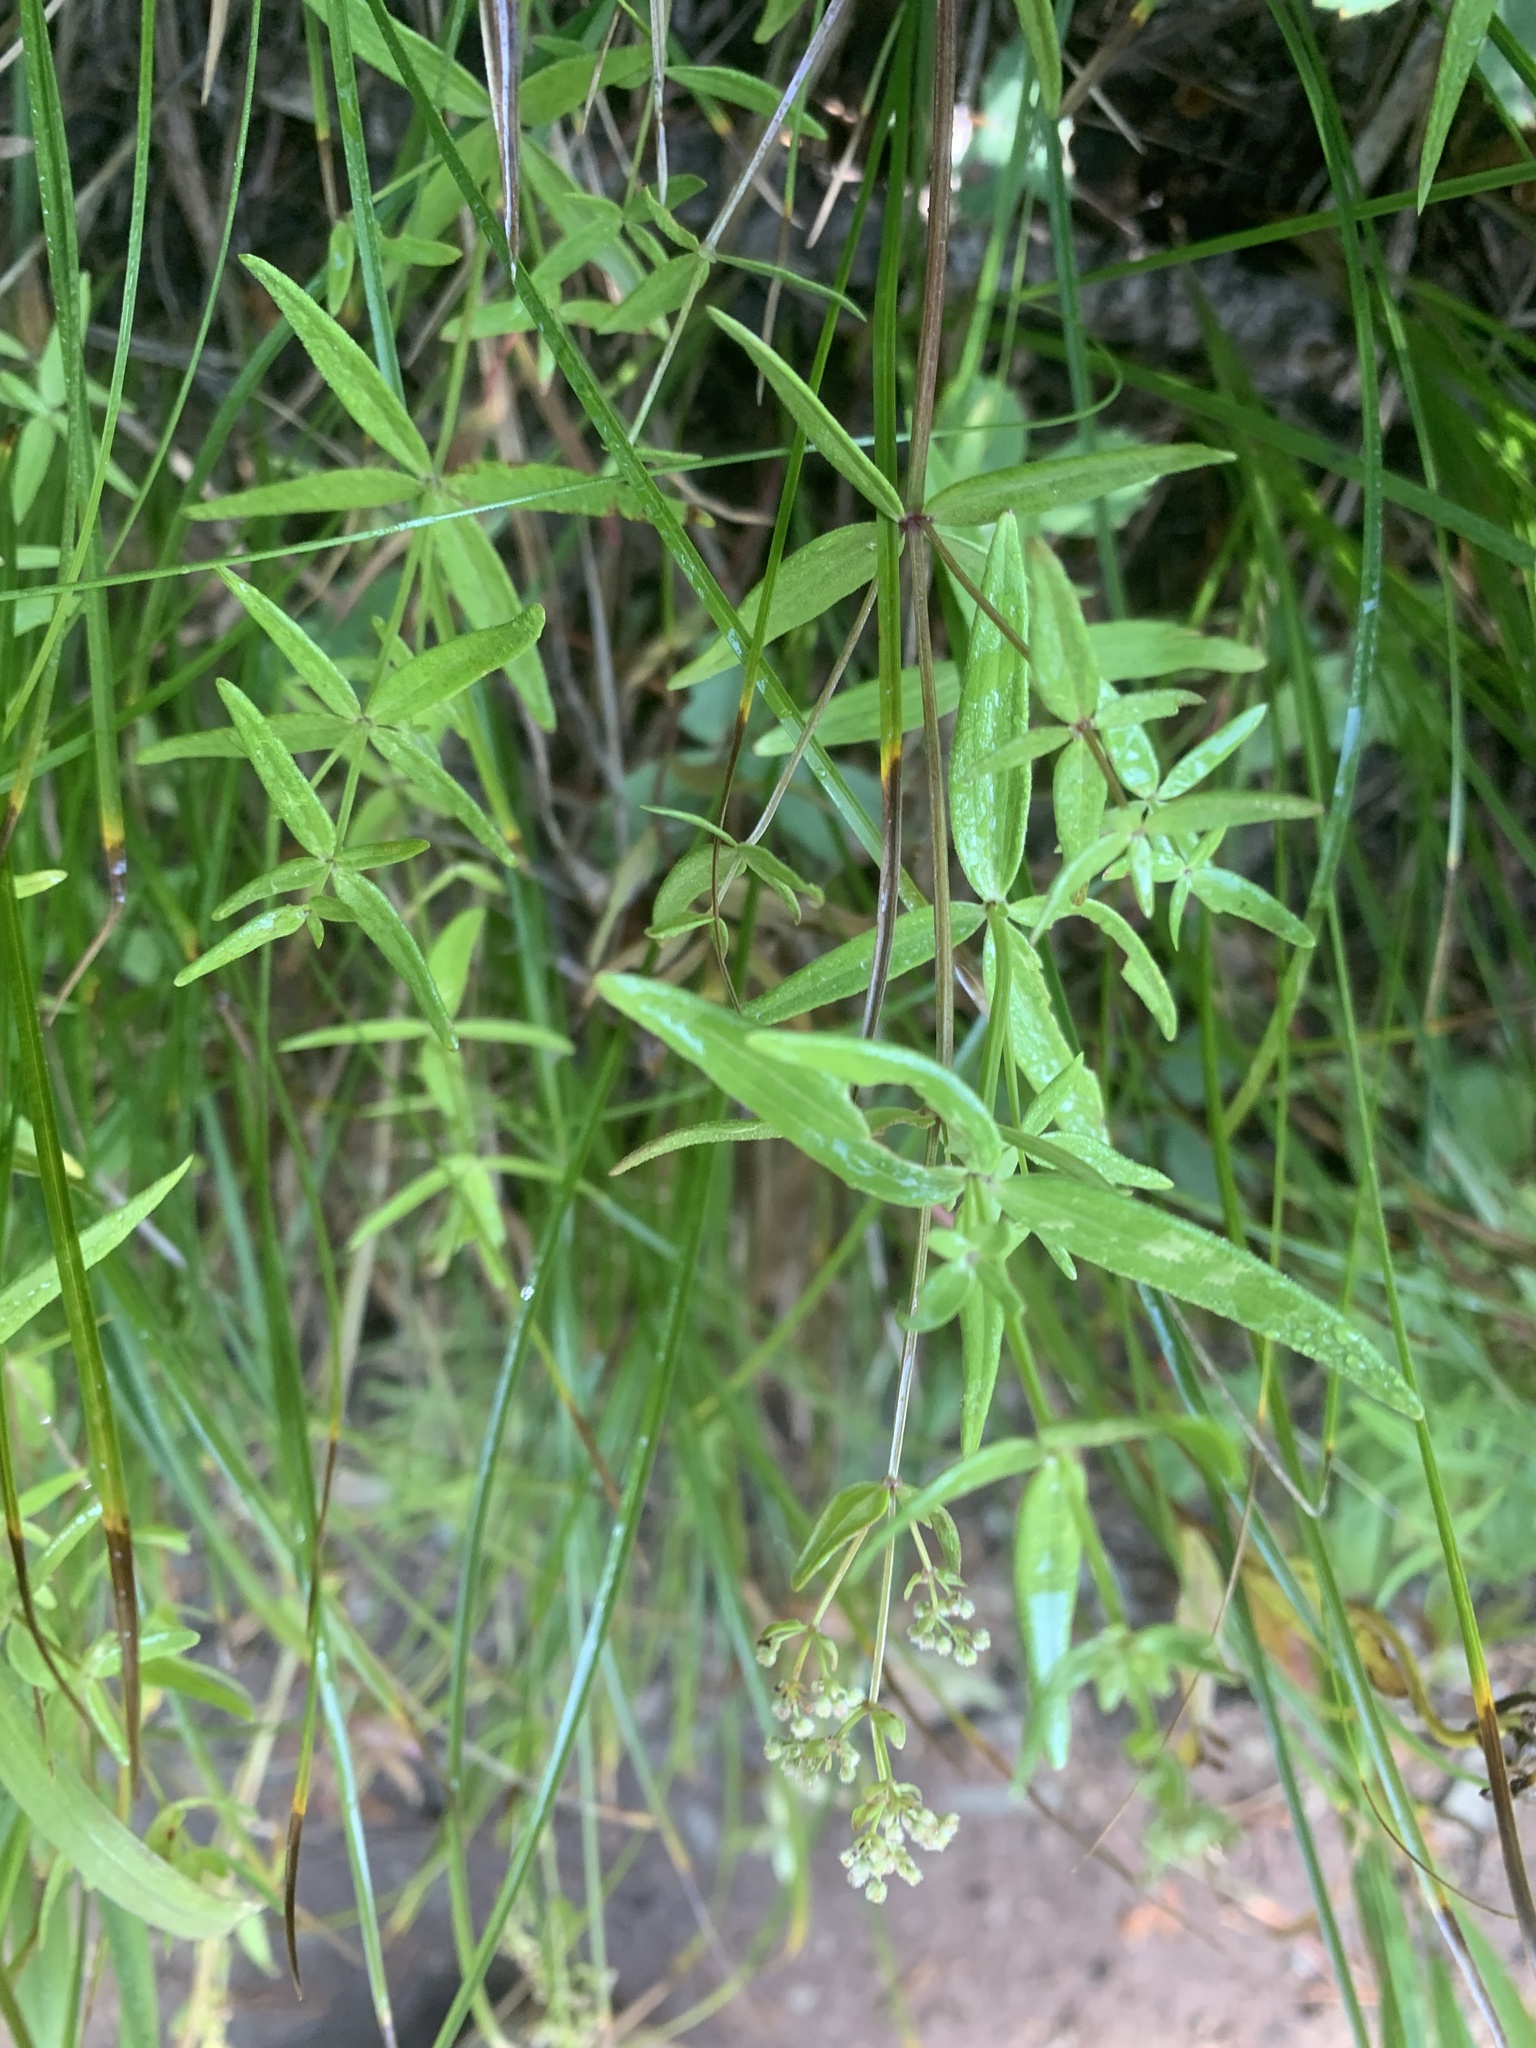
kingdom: Plantae
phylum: Tracheophyta
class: Magnoliopsida
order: Gentianales
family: Rubiaceae
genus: Galium
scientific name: Galium boreale
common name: Northern bedstraw
